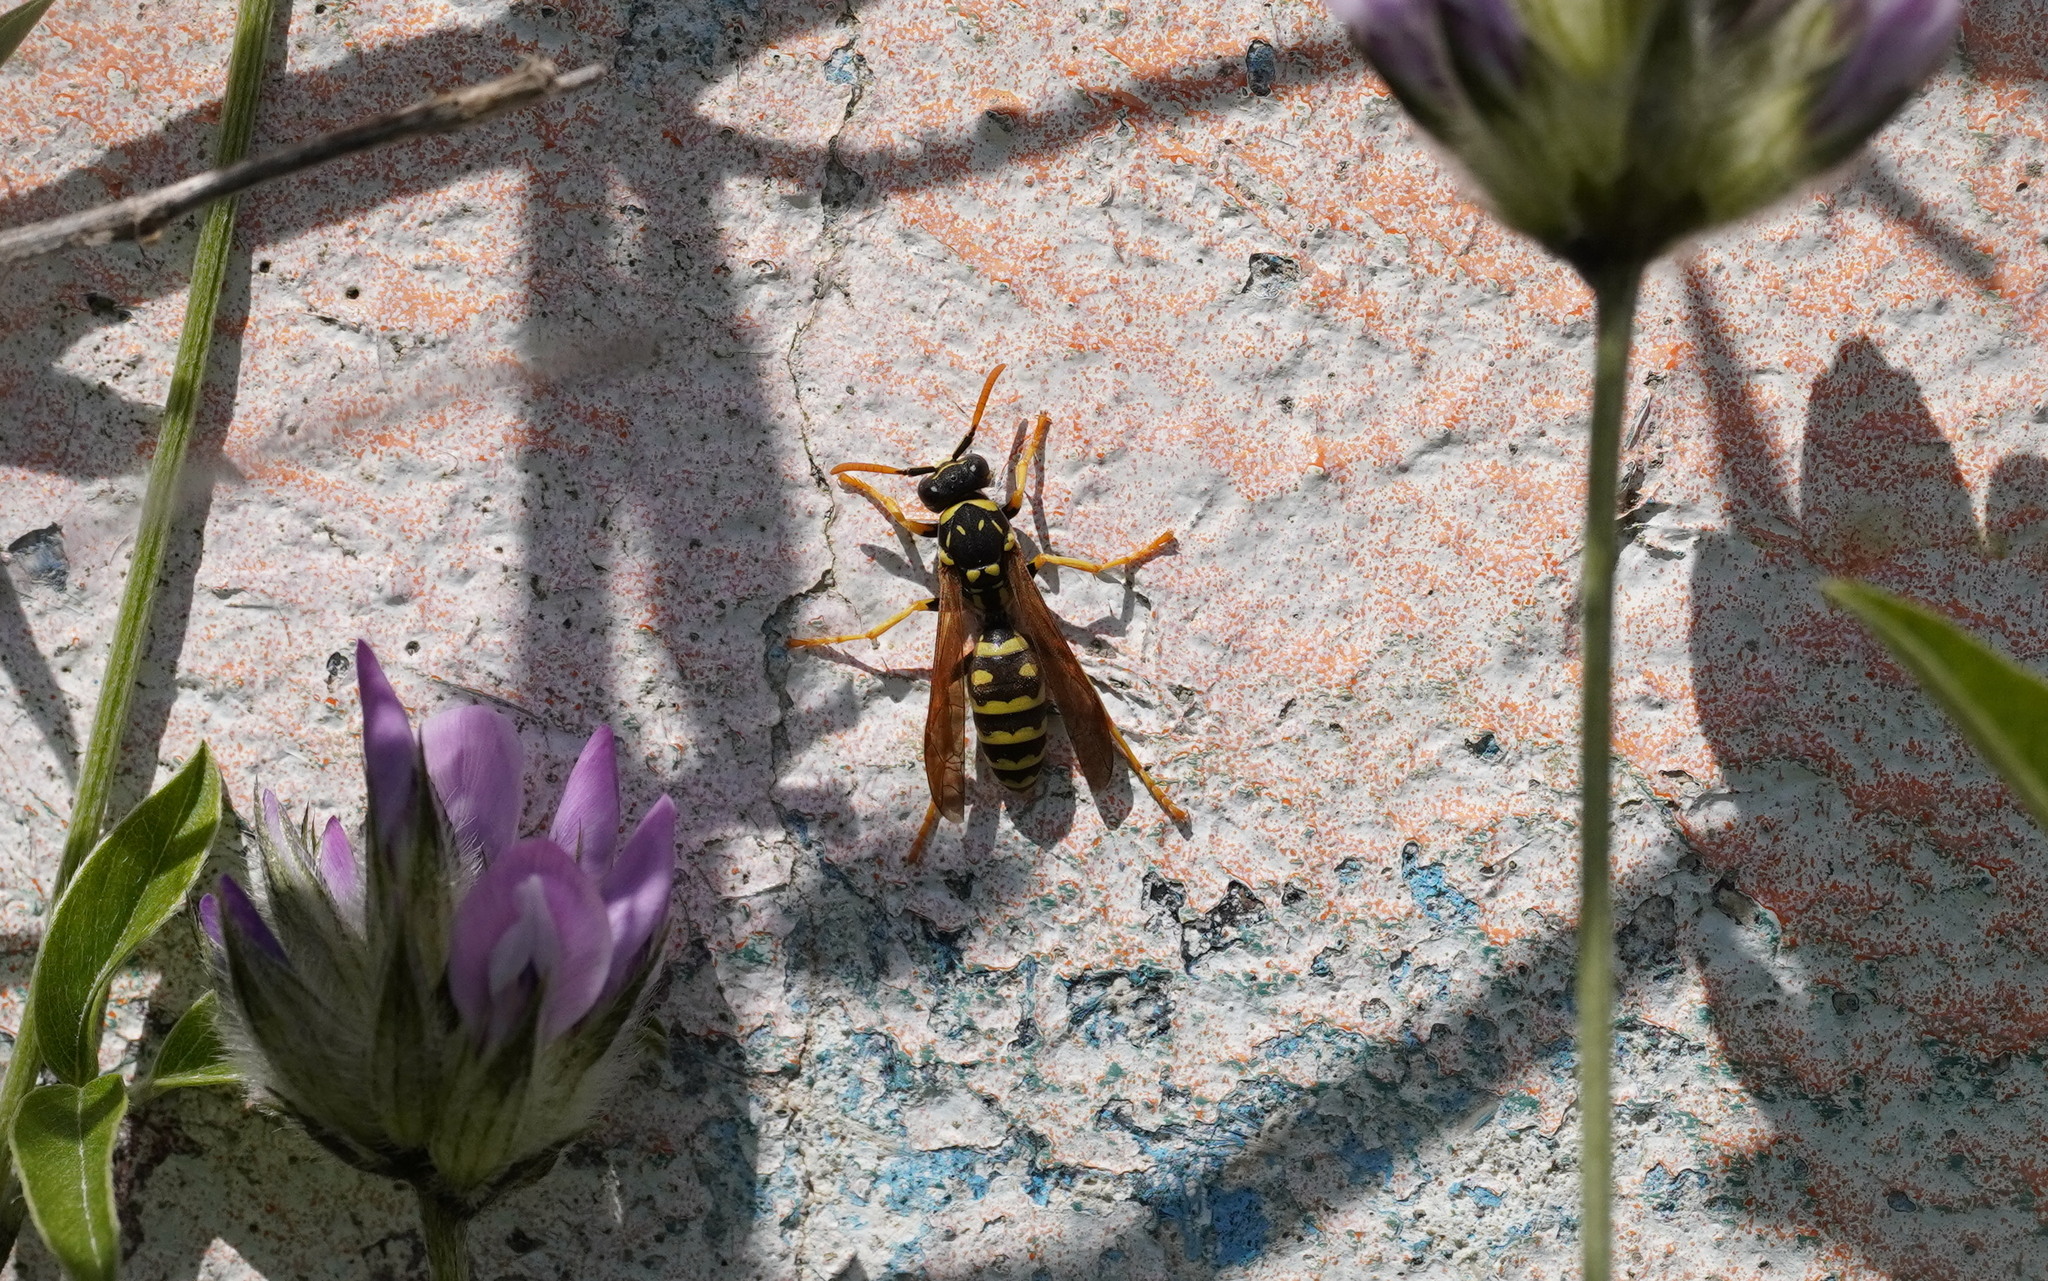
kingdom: Animalia
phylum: Arthropoda
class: Insecta
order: Hymenoptera
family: Eumenidae
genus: Polistes
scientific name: Polistes dominula
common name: Paper wasp
